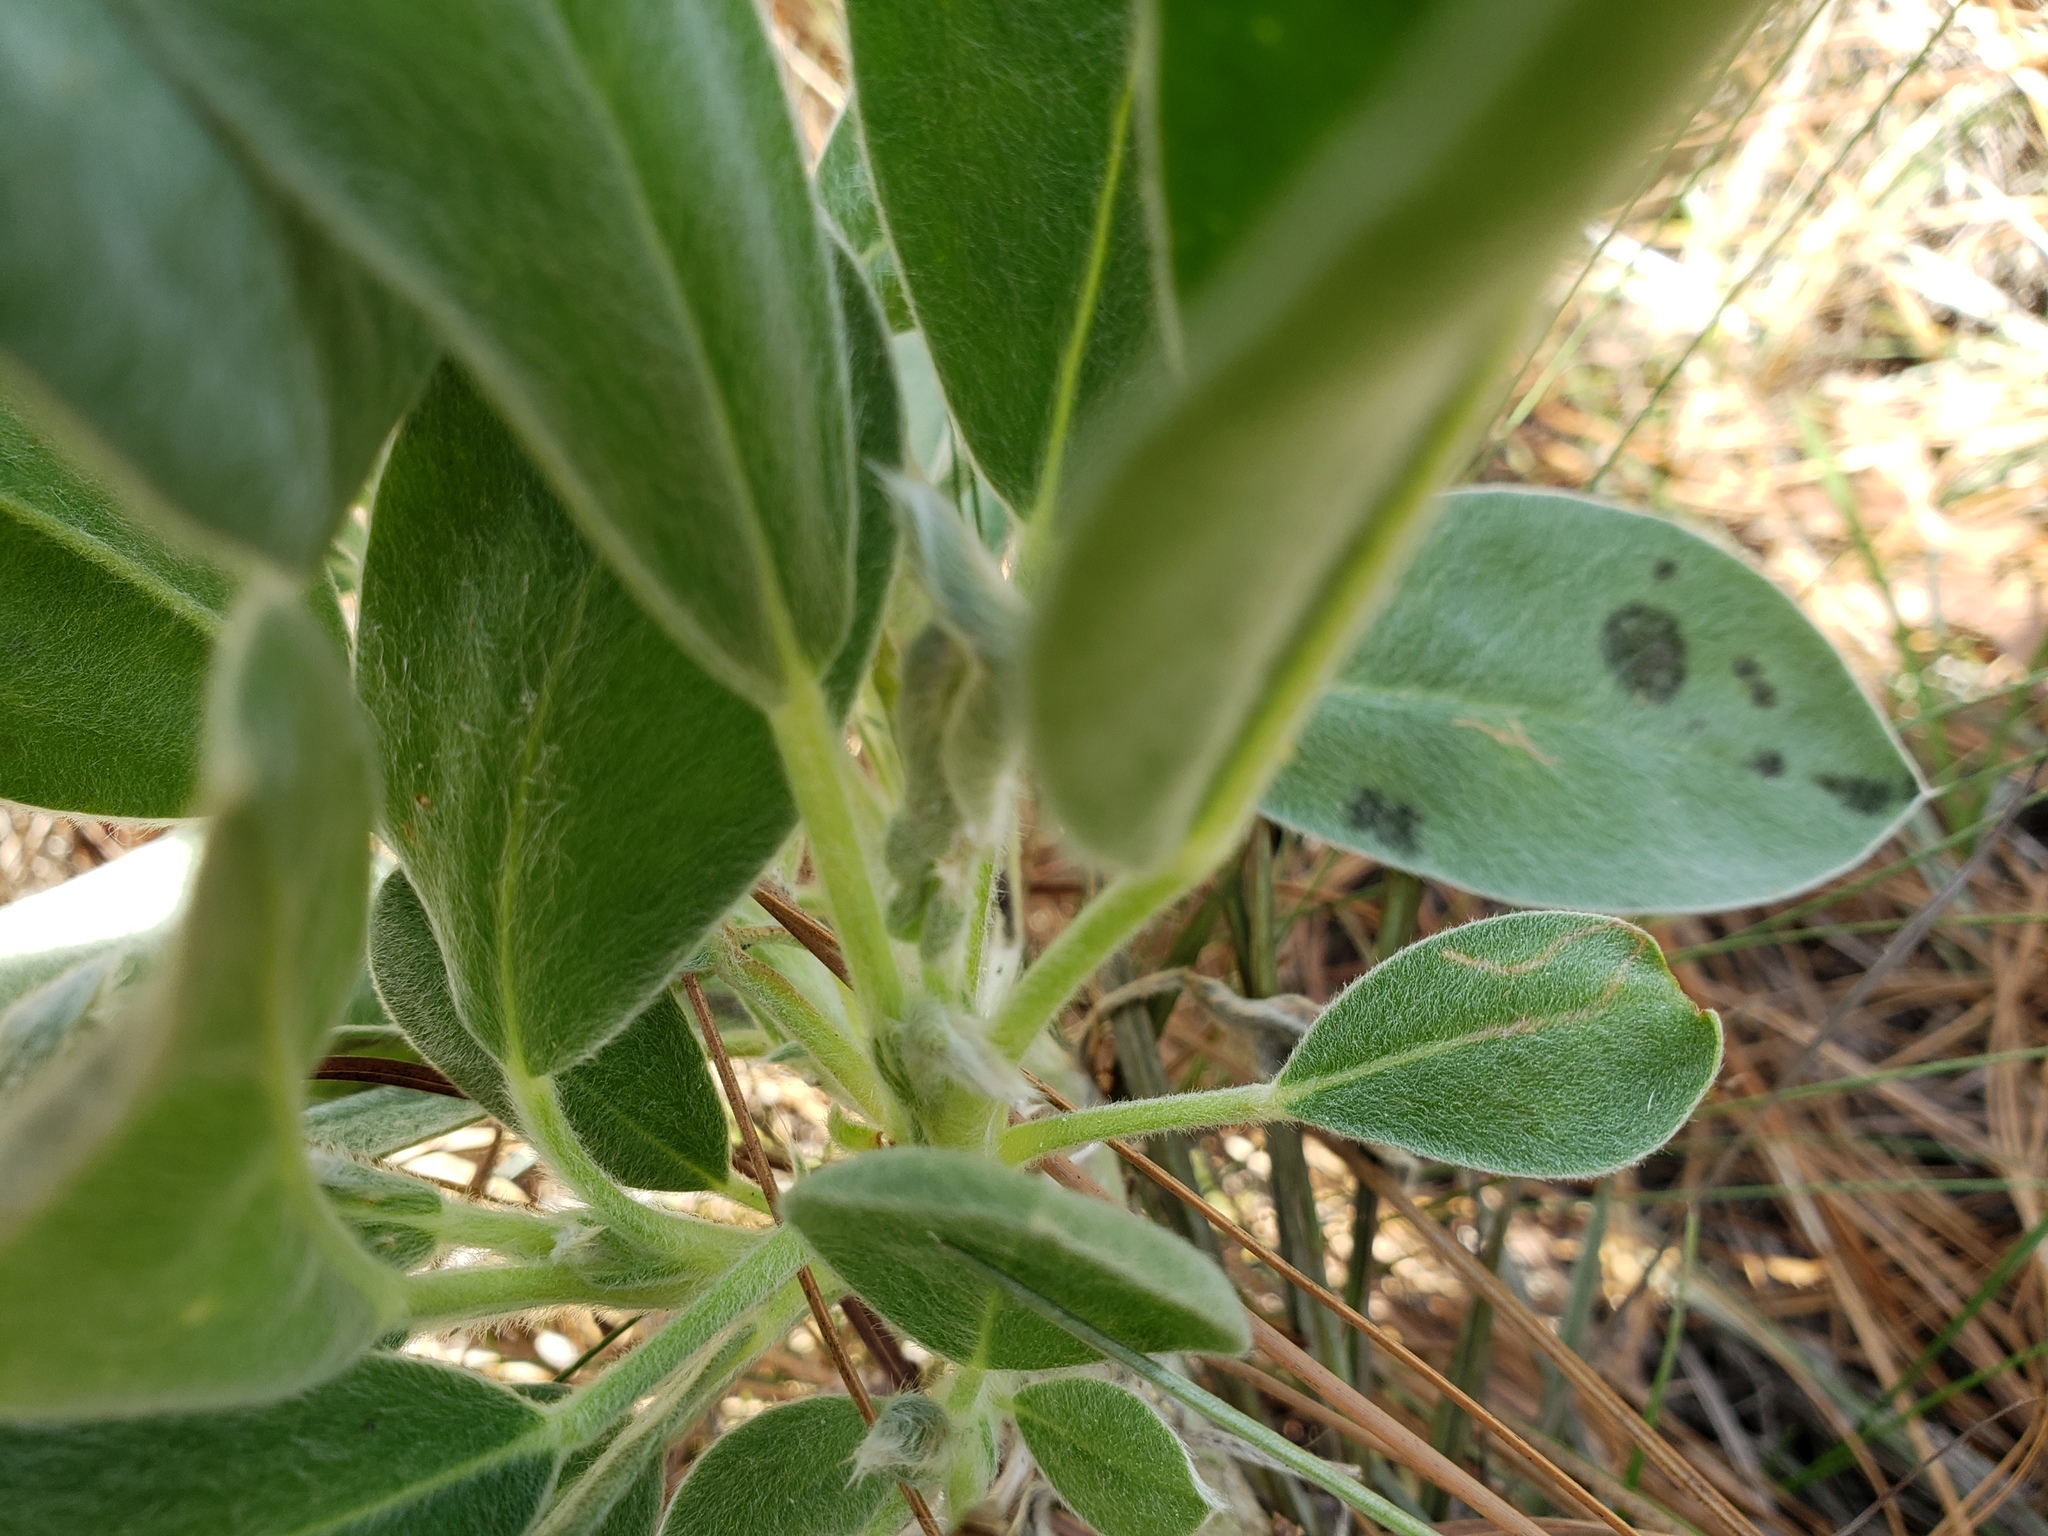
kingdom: Plantae
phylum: Tracheophyta
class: Magnoliopsida
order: Fabales
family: Fabaceae
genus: Lupinus
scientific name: Lupinus
